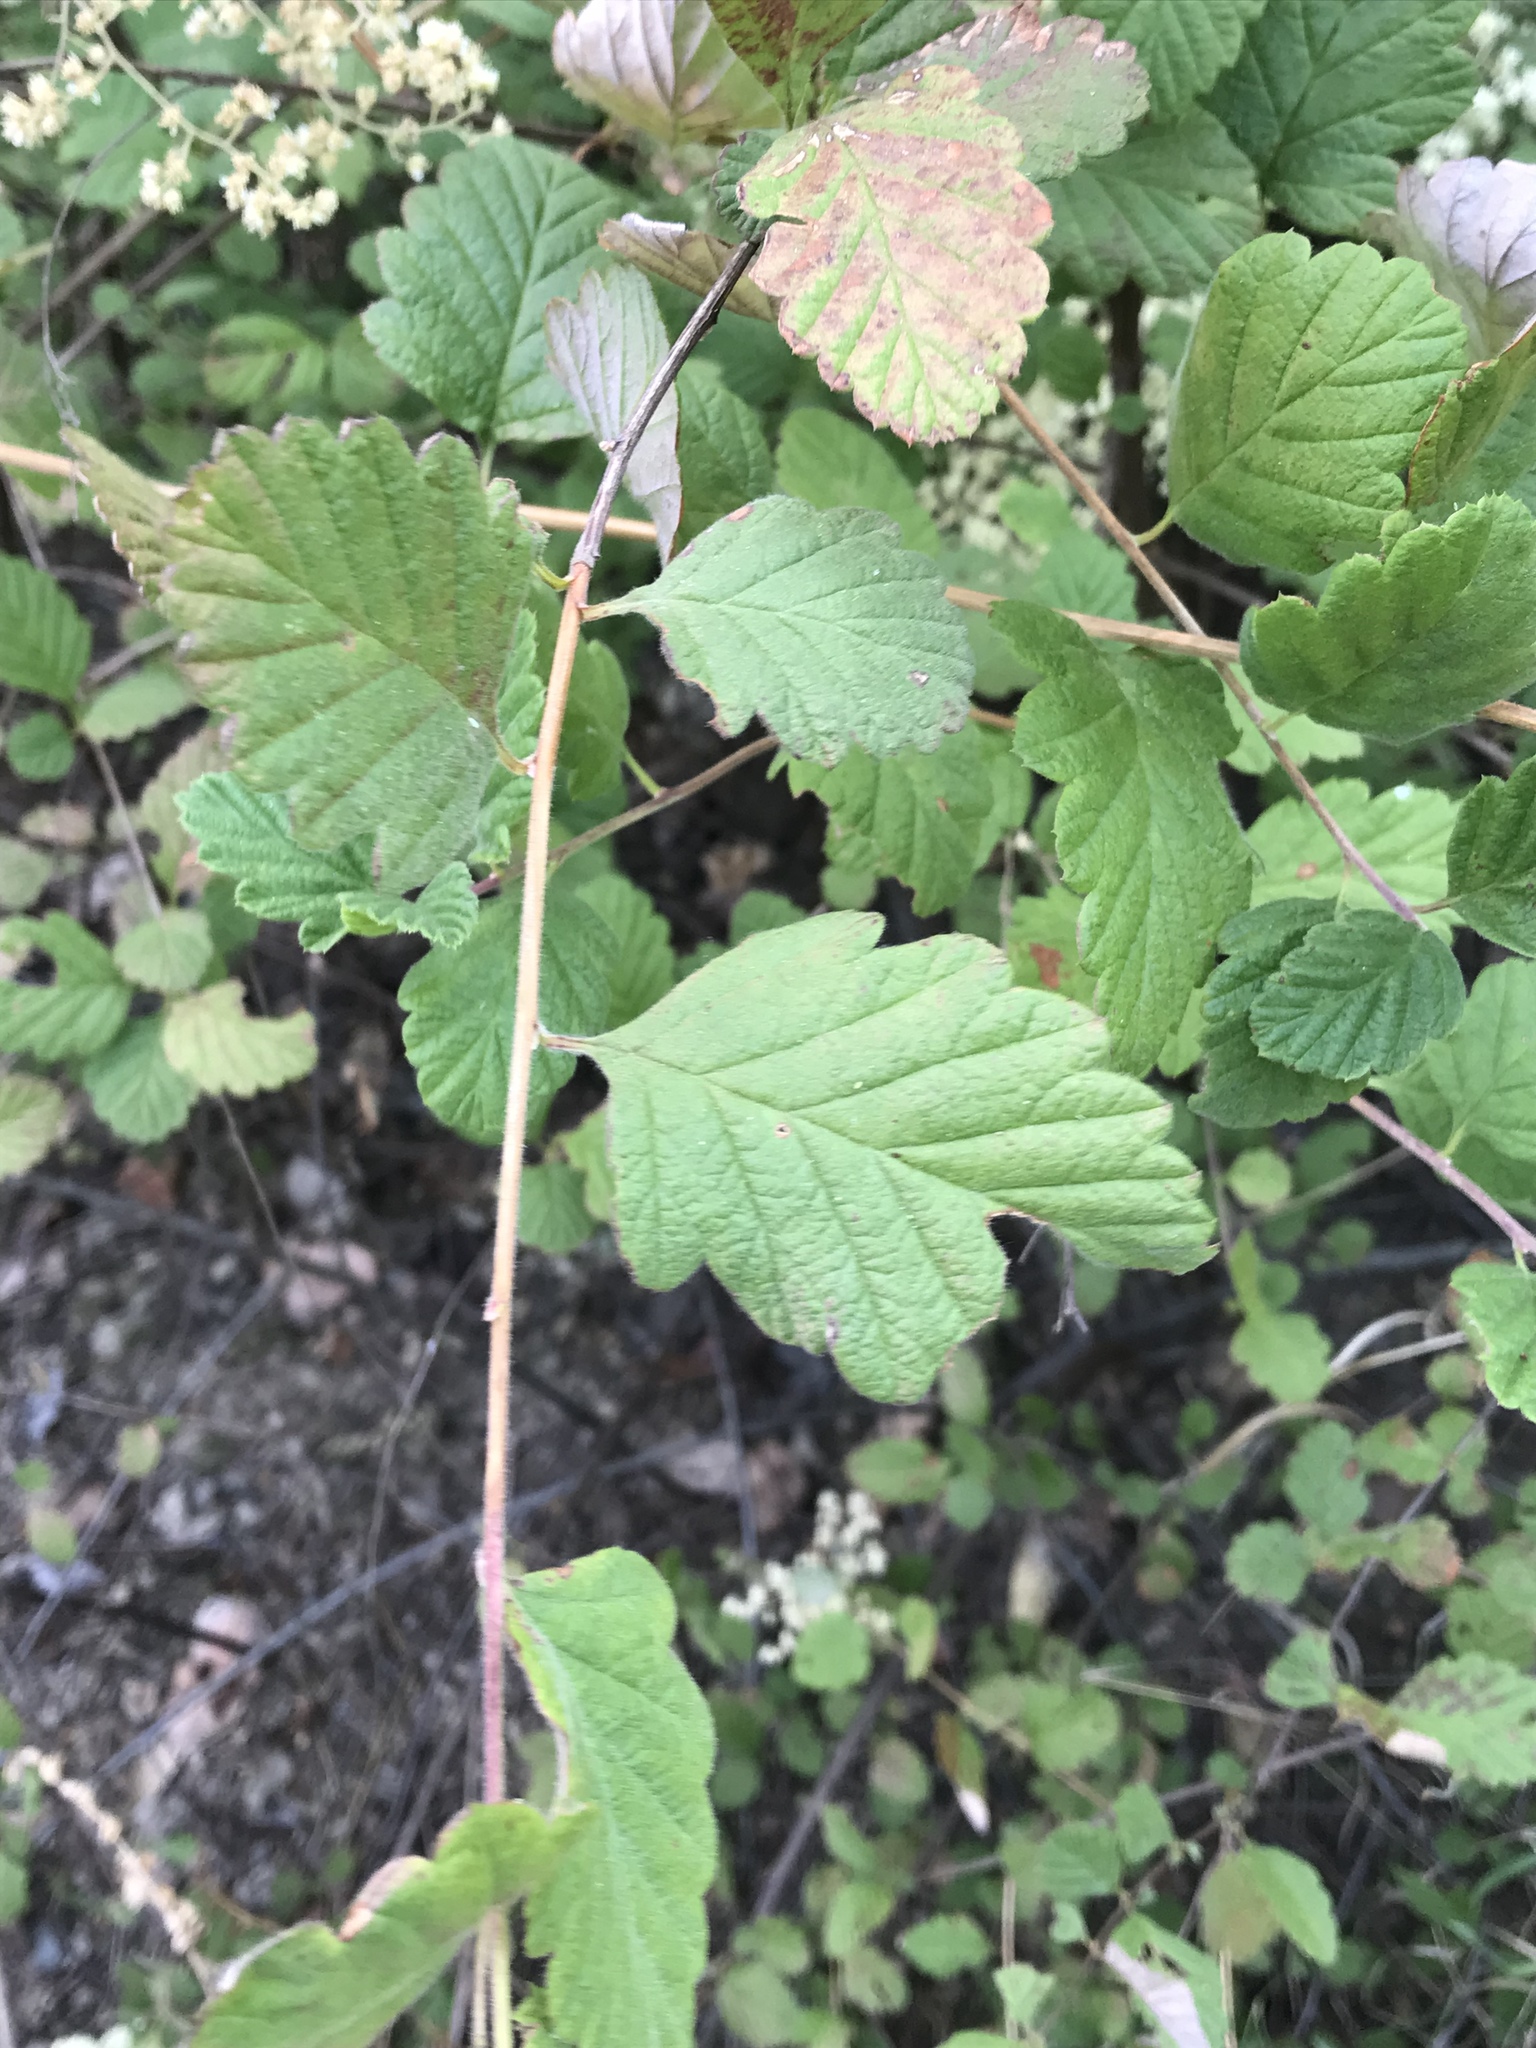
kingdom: Plantae
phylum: Tracheophyta
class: Magnoliopsida
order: Rosales
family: Rosaceae
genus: Holodiscus
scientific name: Holodiscus discolor
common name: Oceanspray
